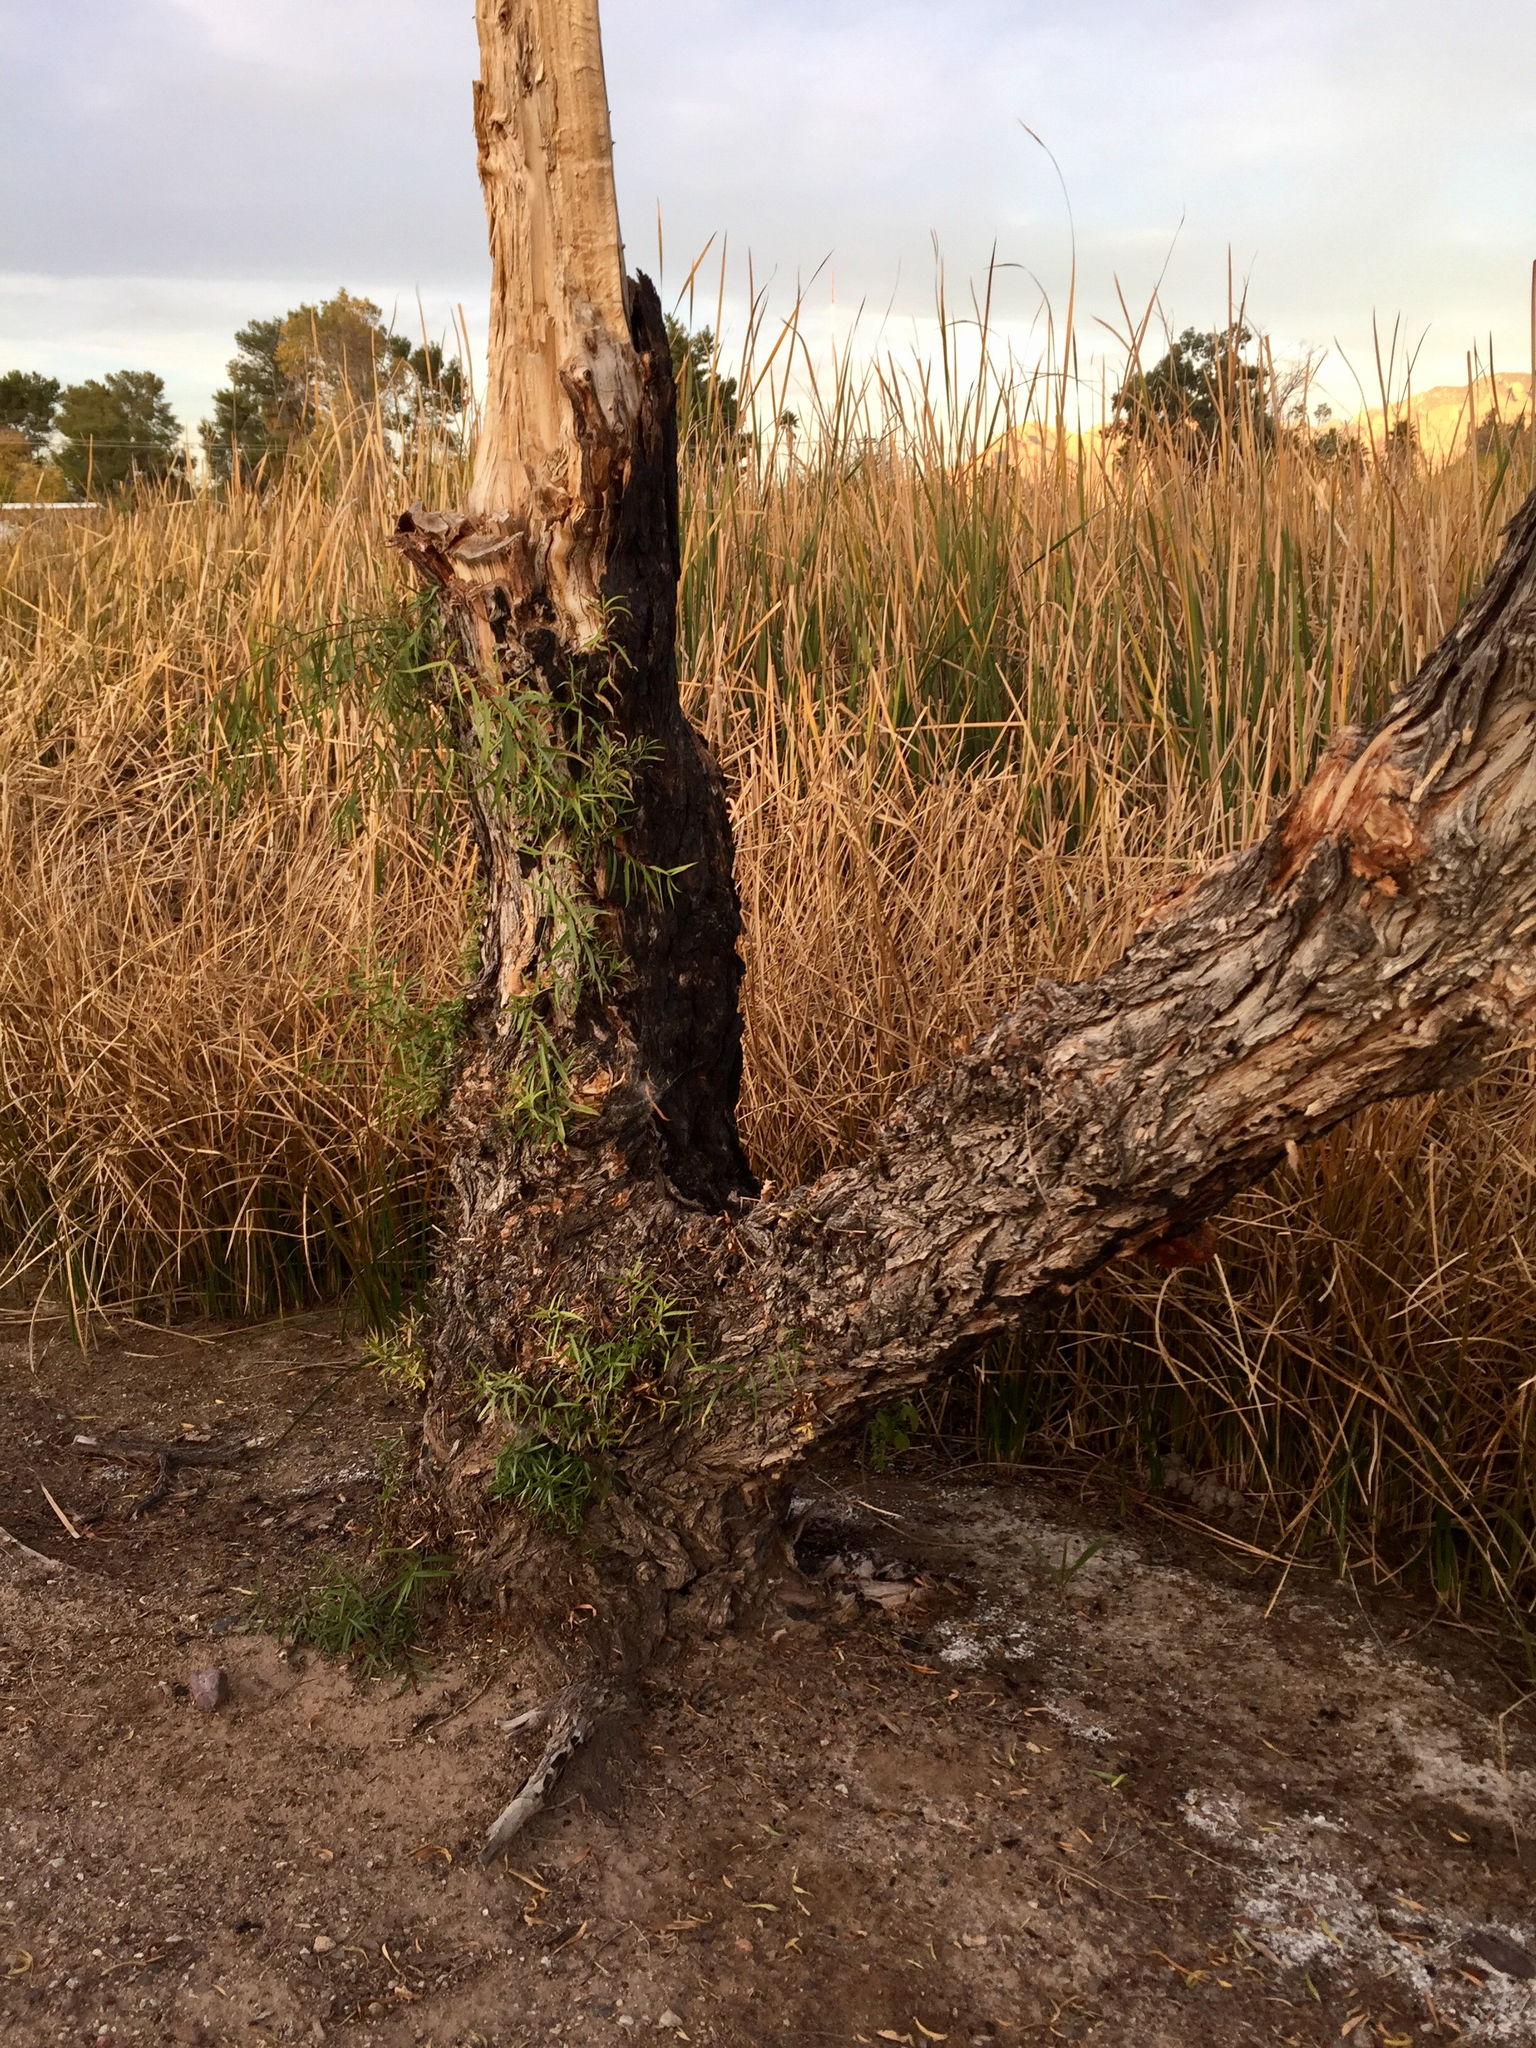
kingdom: Plantae
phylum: Tracheophyta
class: Magnoliopsida
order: Malpighiales
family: Salicaceae
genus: Salix
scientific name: Salix gooddingii
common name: Goodding's willow
